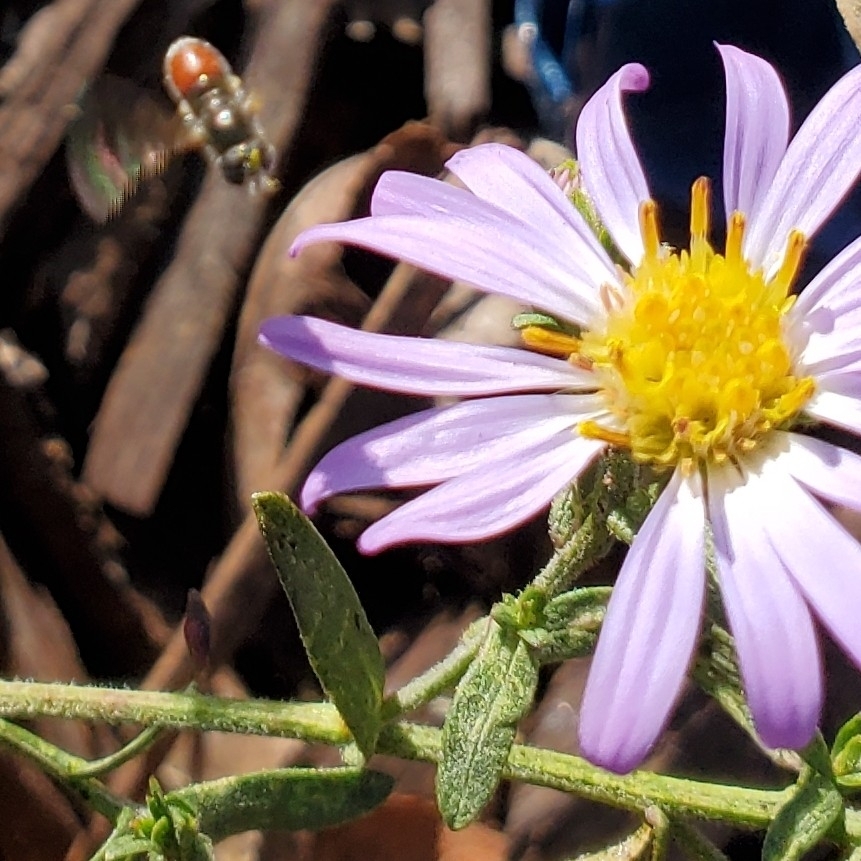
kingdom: Animalia
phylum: Arthropoda
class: Insecta
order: Diptera
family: Syrphidae
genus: Paragus
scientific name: Paragus haemorrhous
